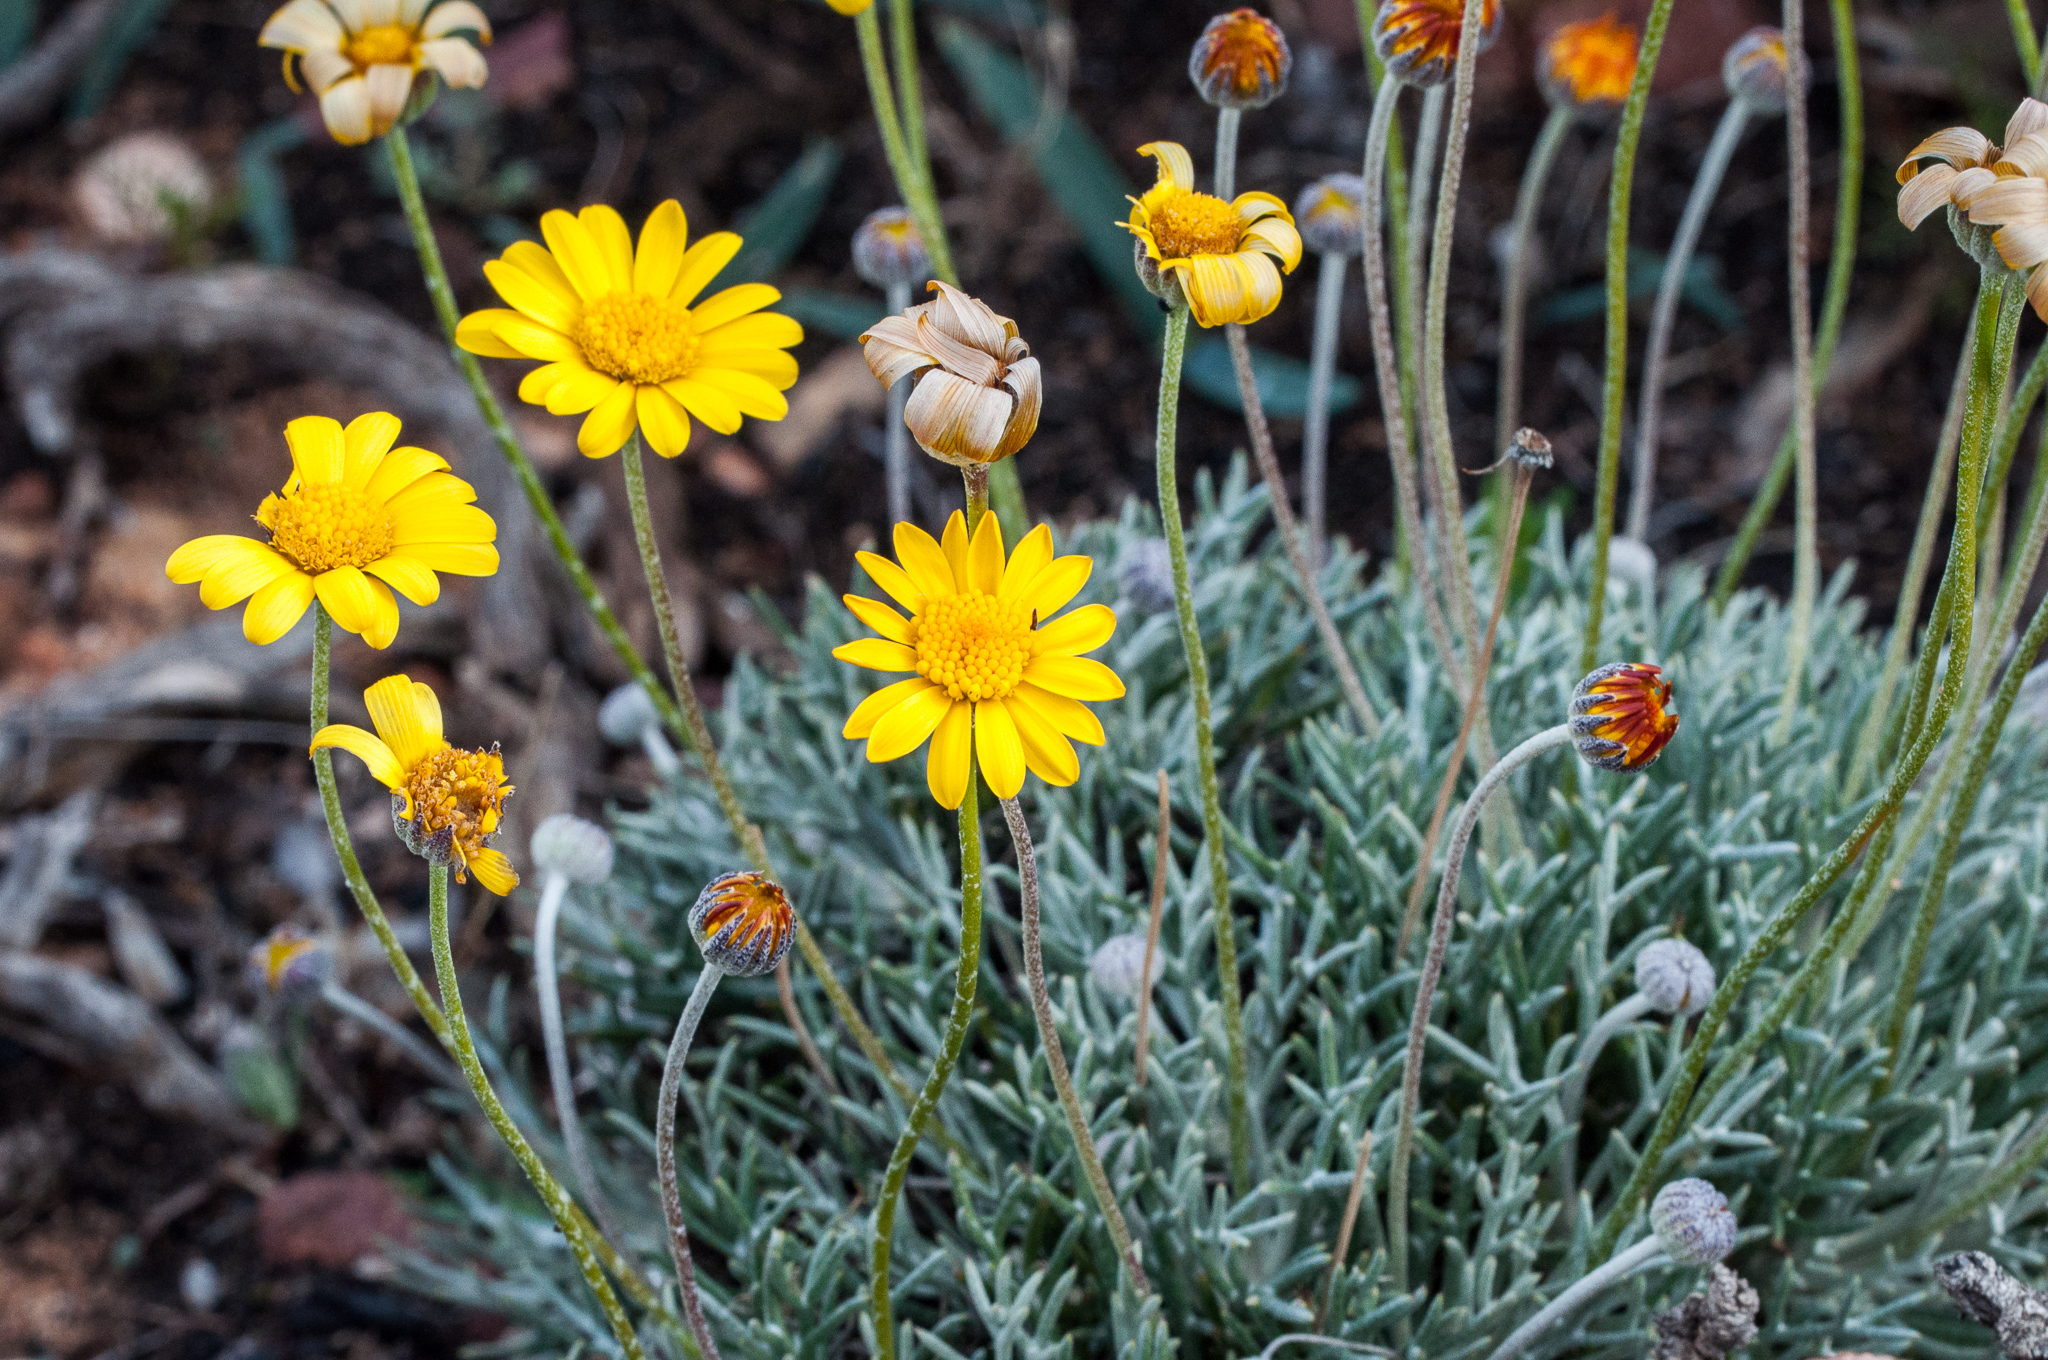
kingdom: Plantae
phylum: Tracheophyta
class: Magnoliopsida
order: Asterales
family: Asteraceae
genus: Euryops
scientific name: Euryops othonnoides
